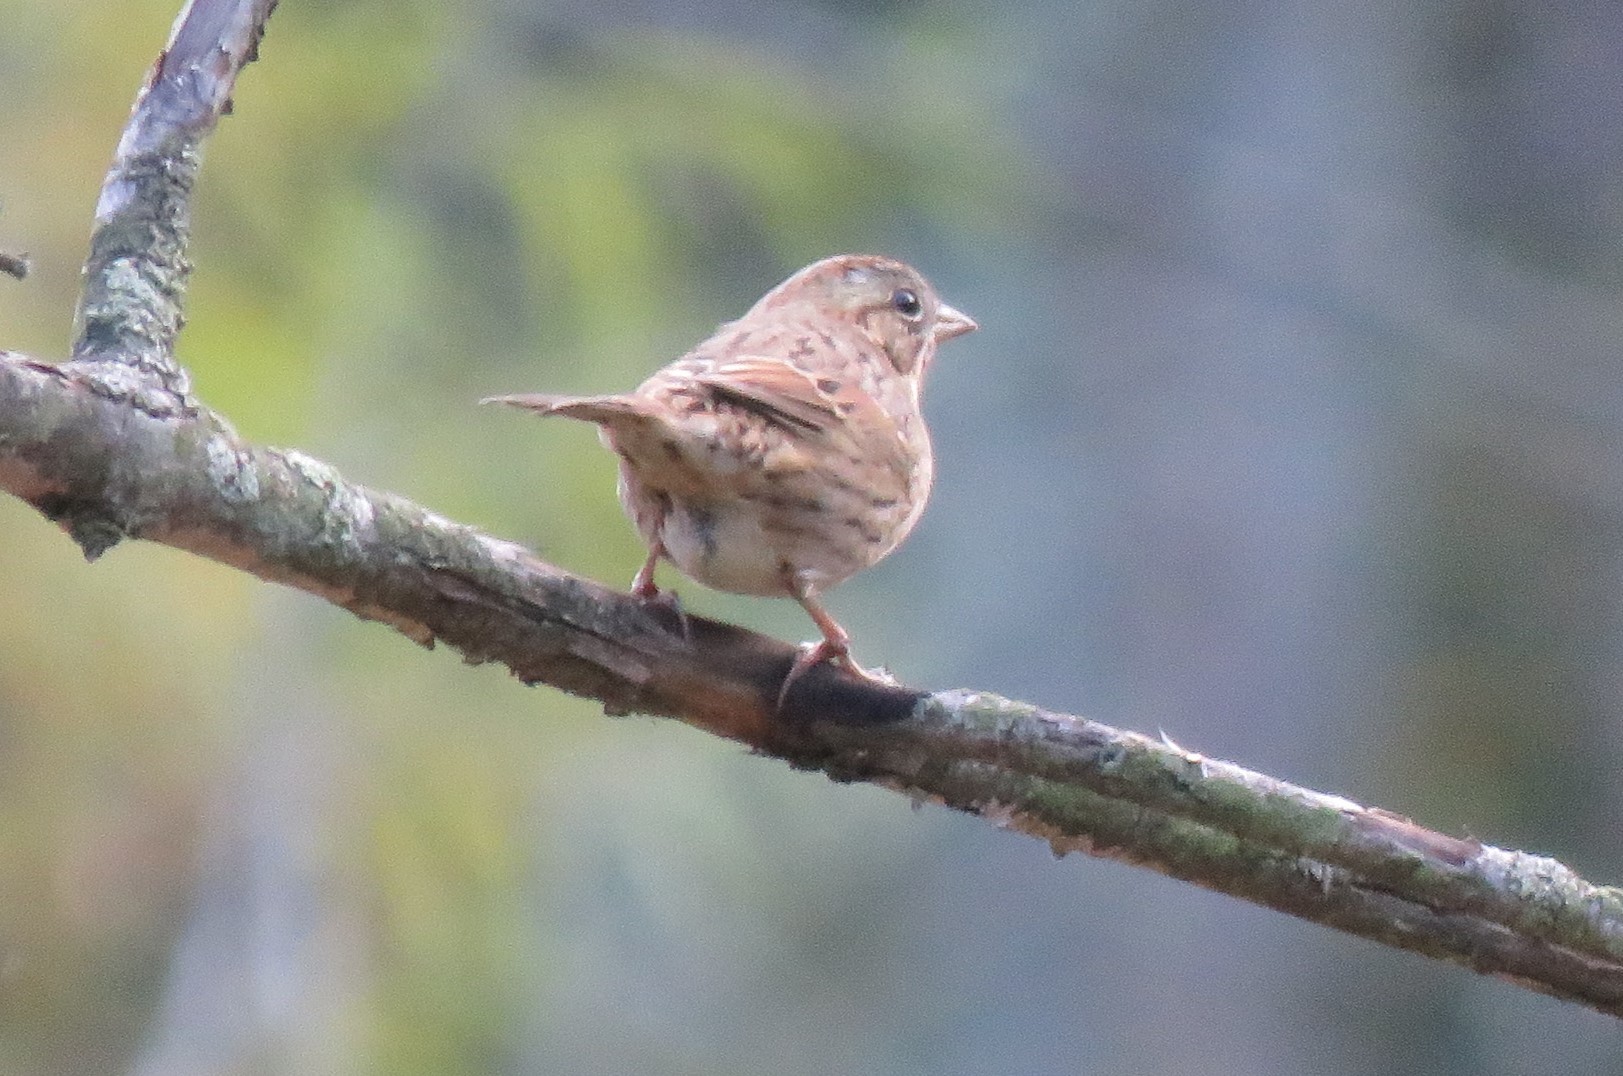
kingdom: Animalia
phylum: Chordata
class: Aves
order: Passeriformes
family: Passerellidae
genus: Melospiza
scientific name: Melospiza lincolnii
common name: Lincoln's sparrow
